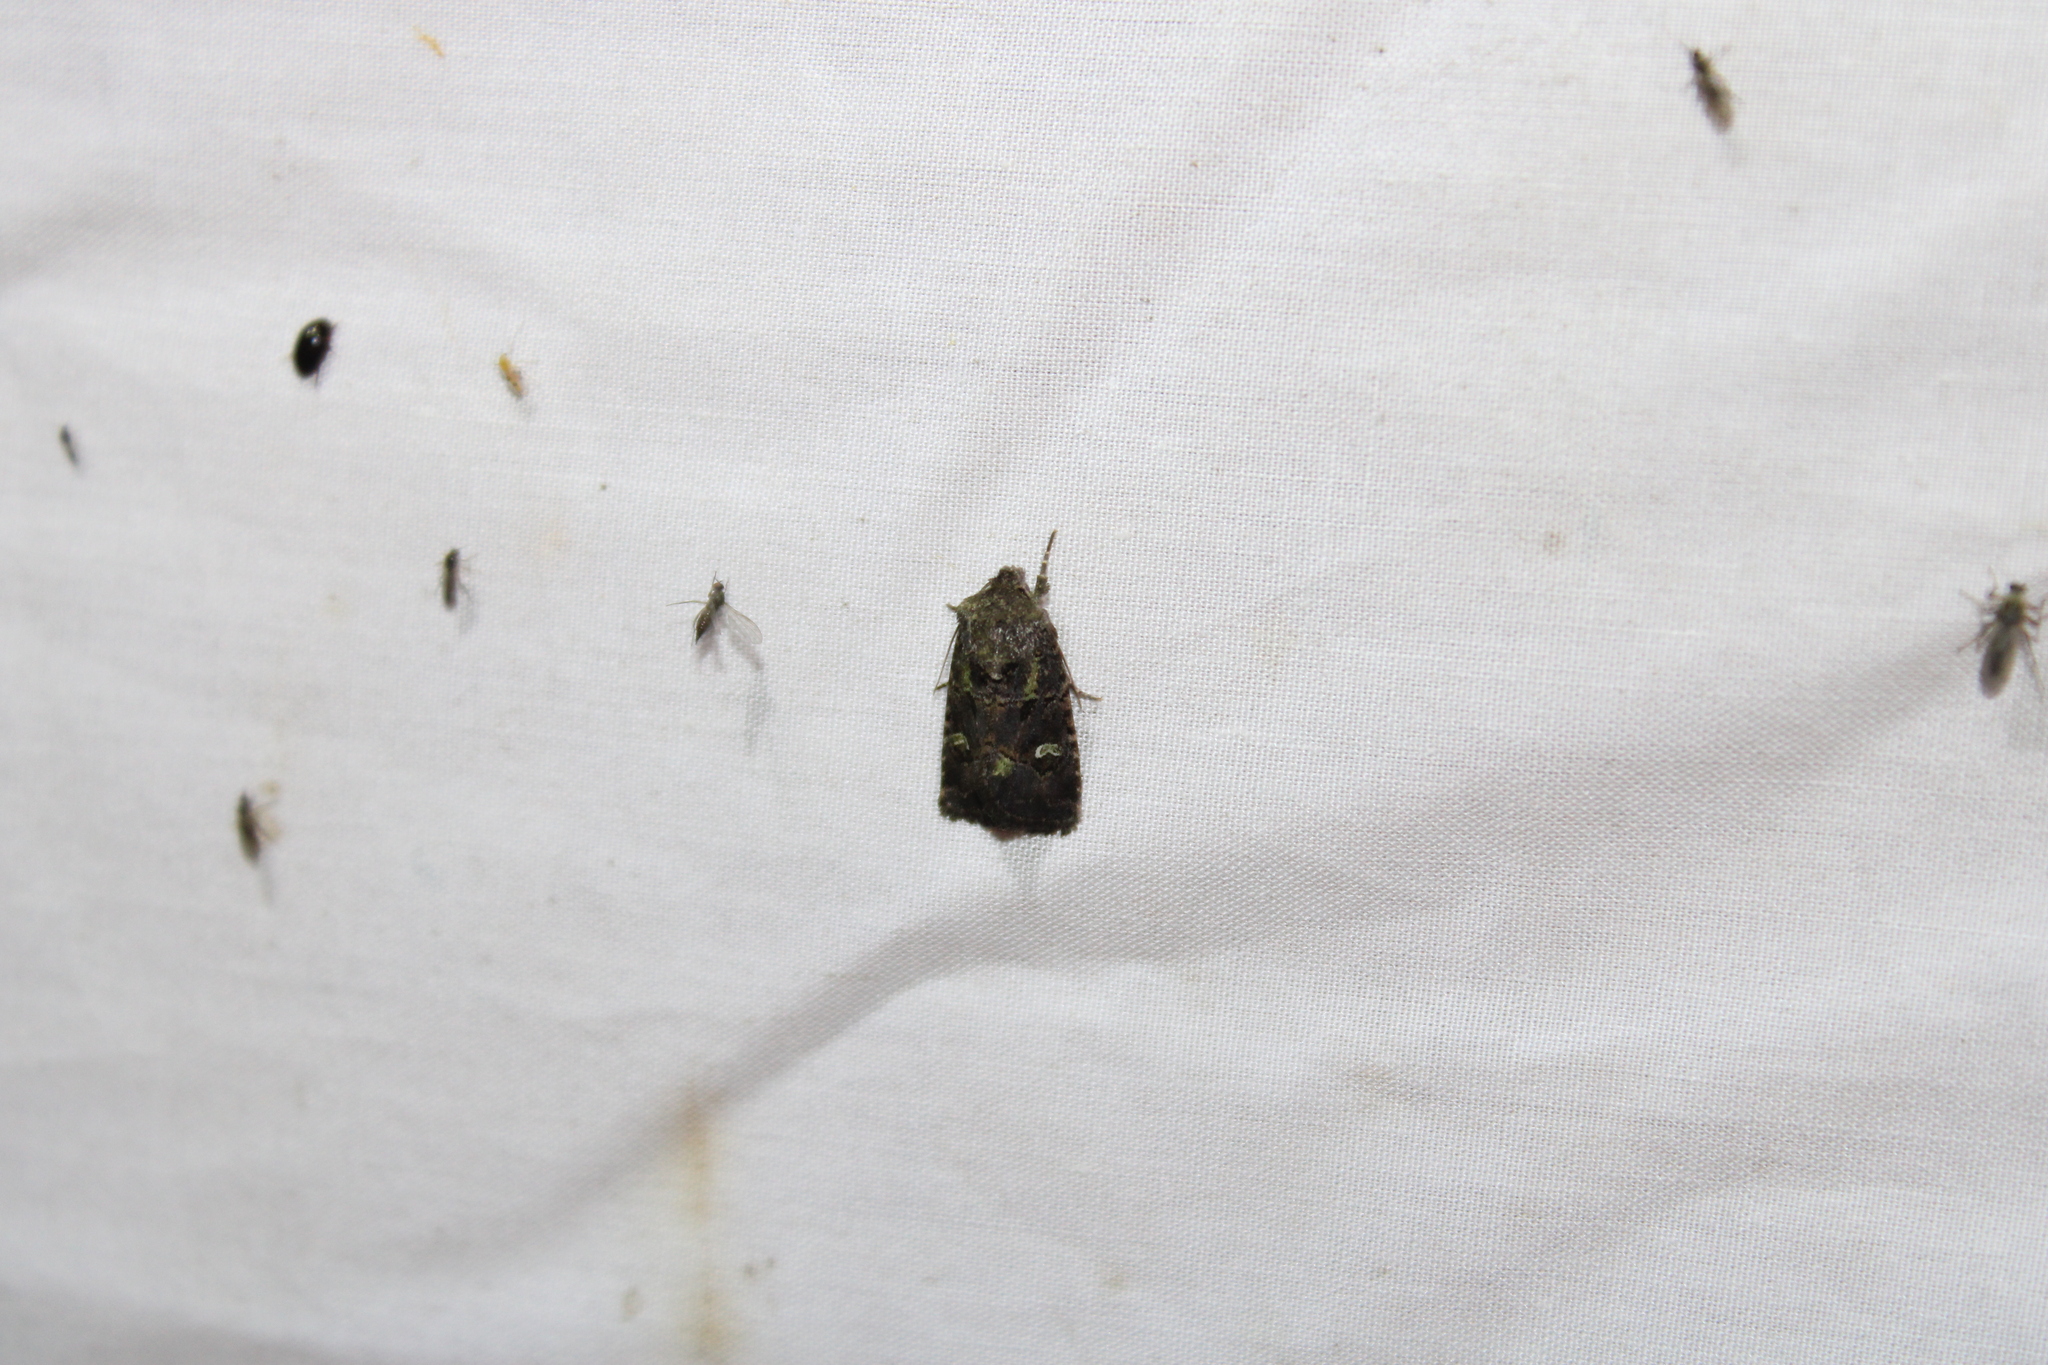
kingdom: Animalia
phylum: Arthropoda
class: Insecta
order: Lepidoptera
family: Noctuidae
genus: Lacinipolia
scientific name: Lacinipolia renigera
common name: Kidney-spotted minor
